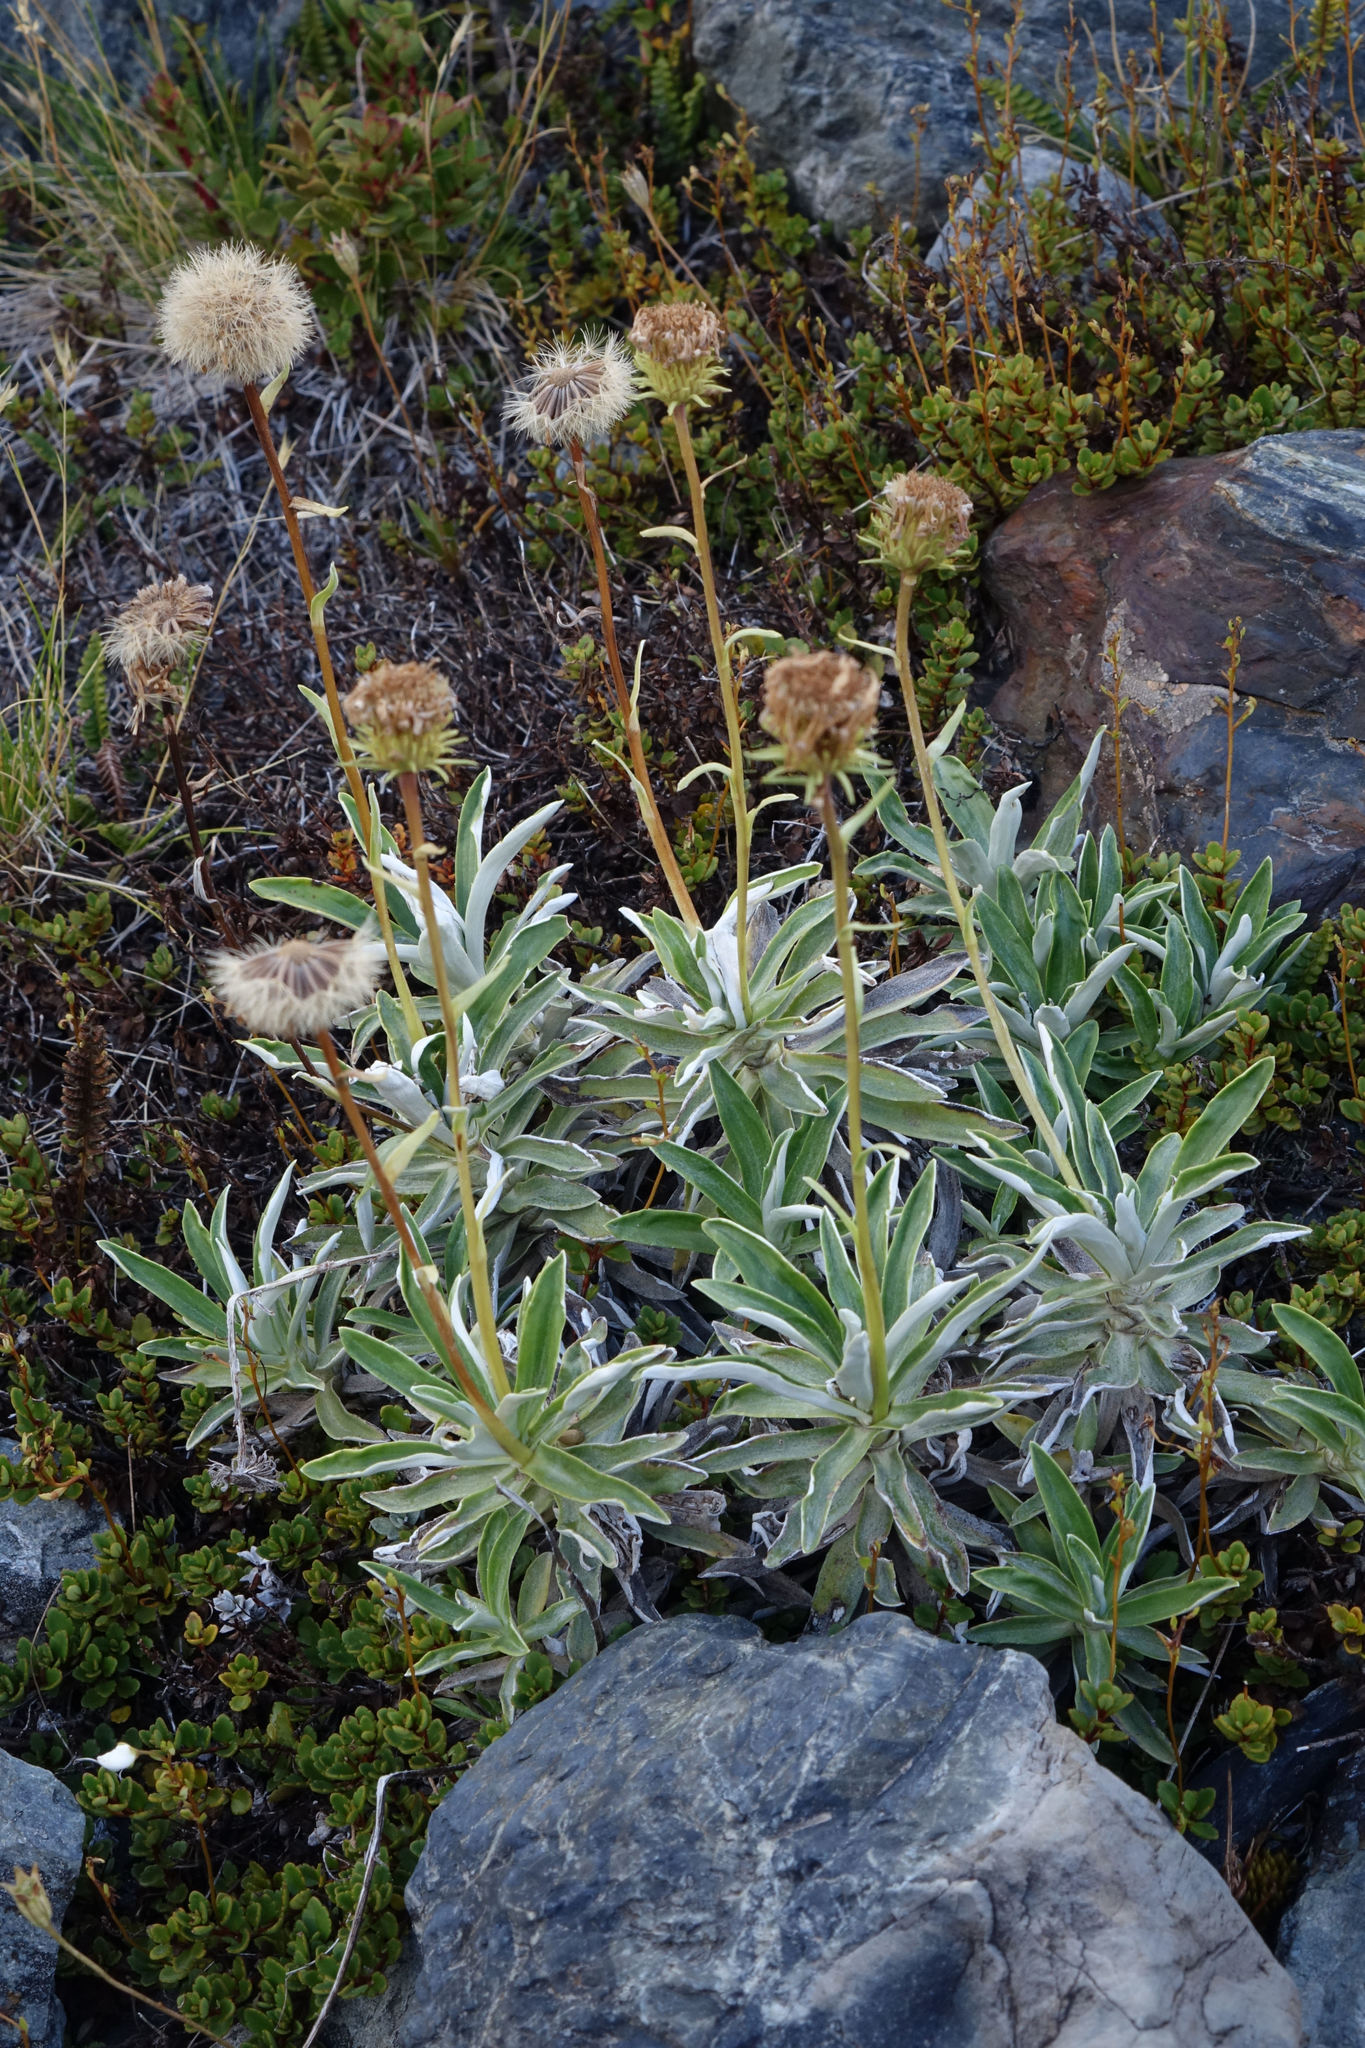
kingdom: Plantae
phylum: Tracheophyta
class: Magnoliopsida
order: Asterales
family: Asteraceae
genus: Celmisia
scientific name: Celmisia angustifolia
